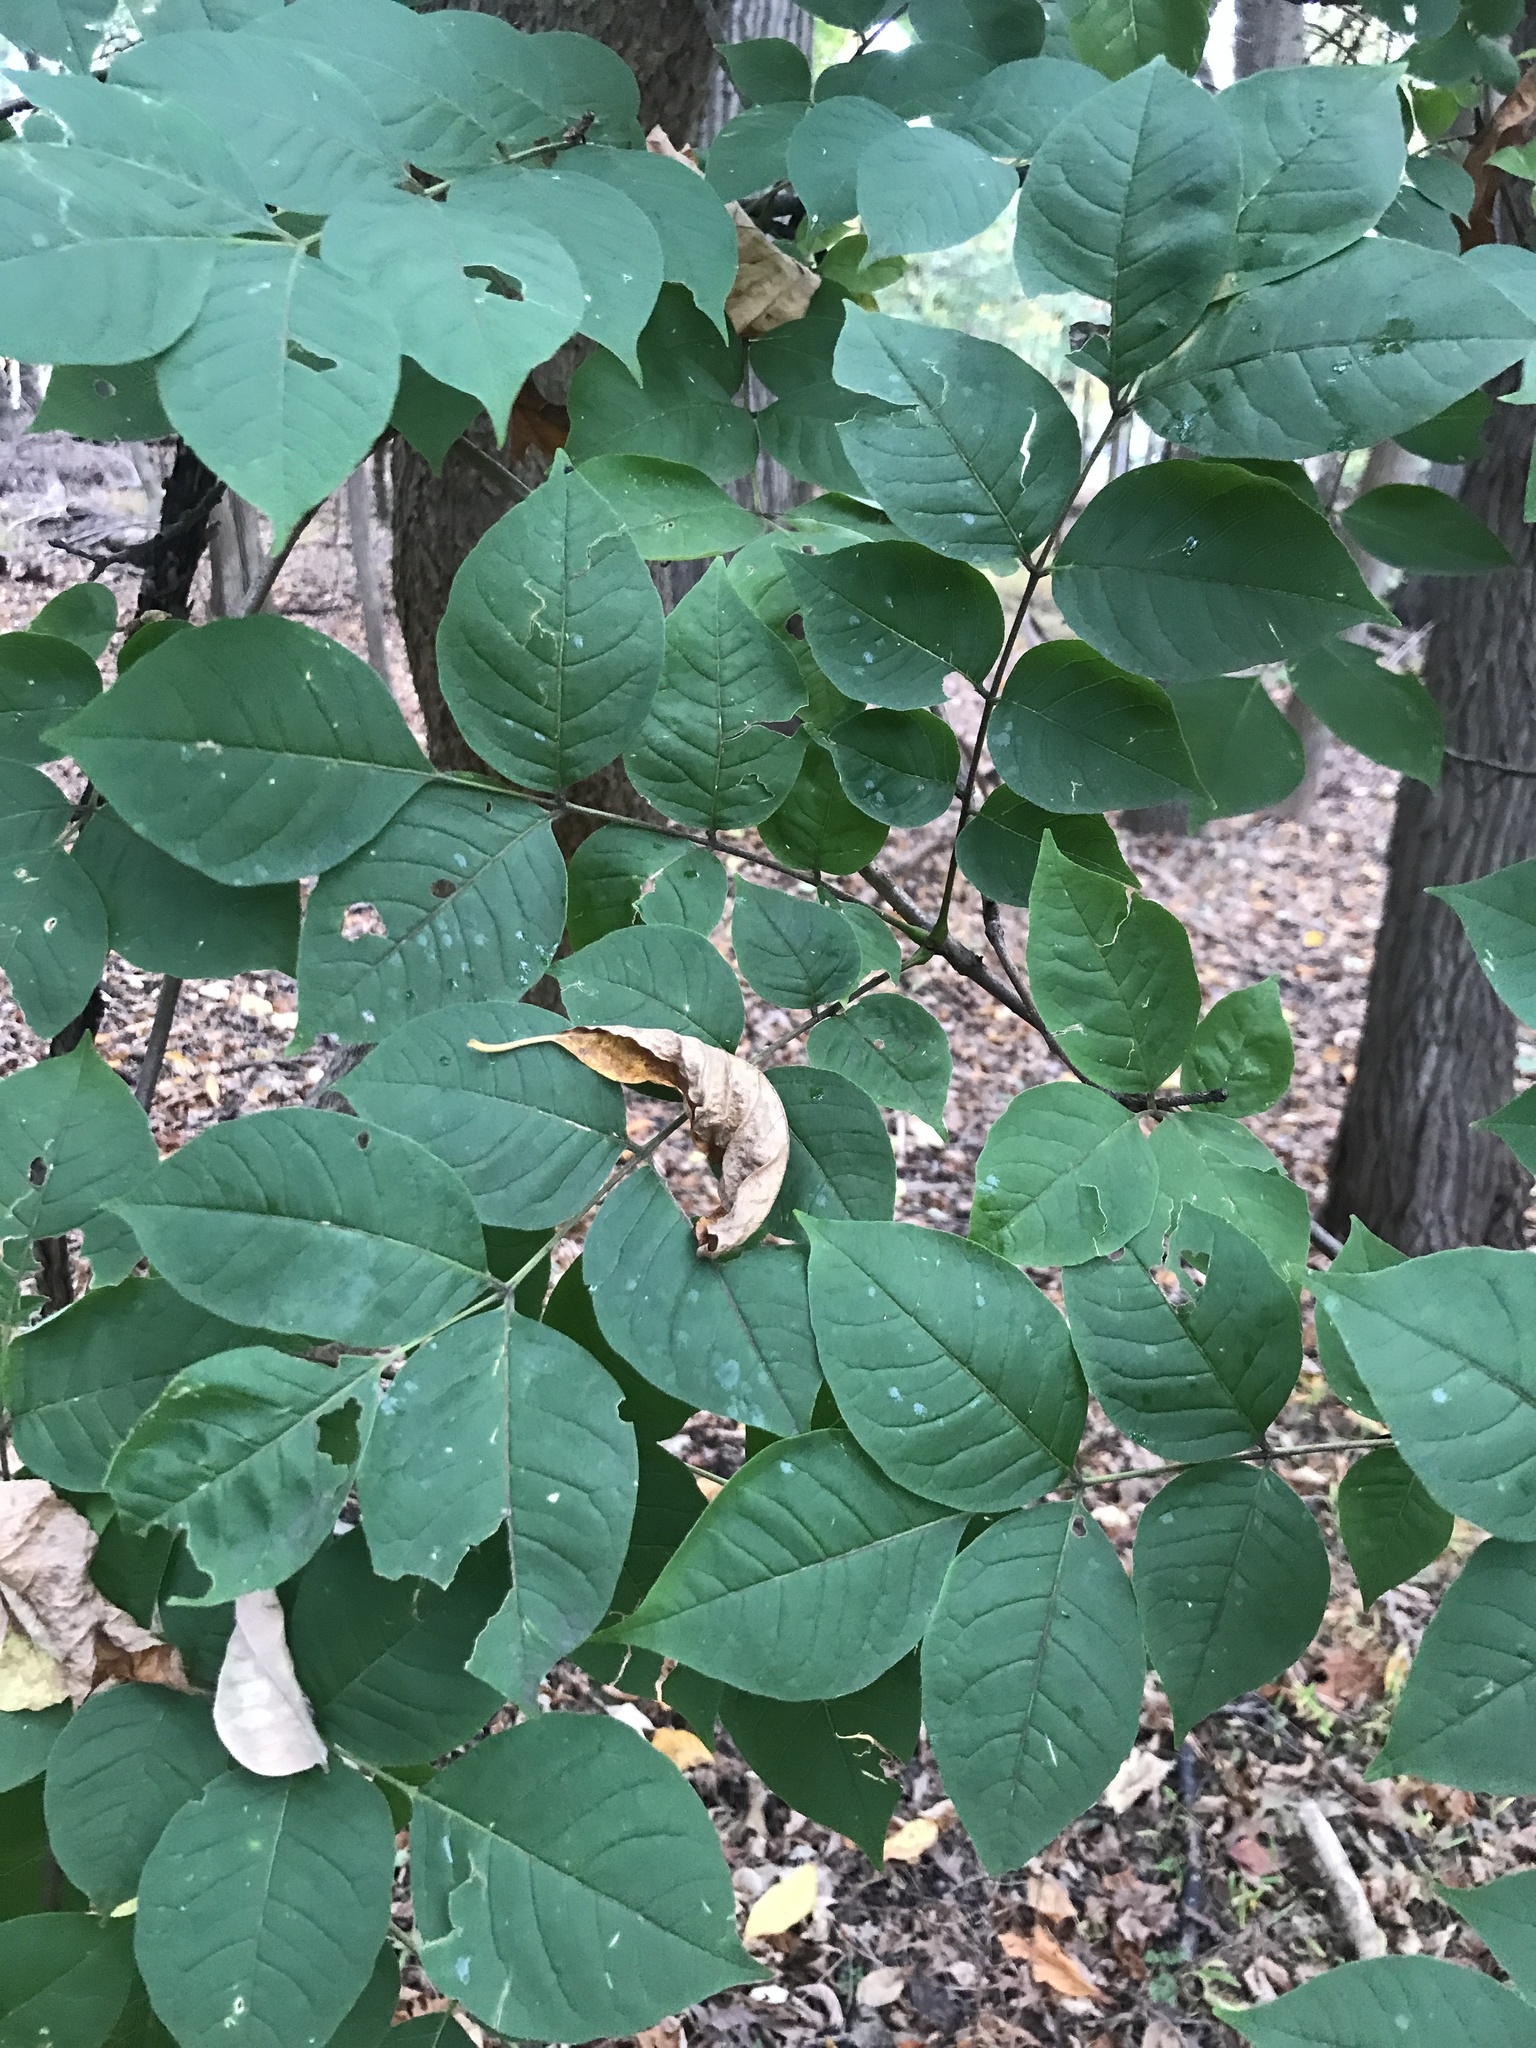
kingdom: Plantae
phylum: Tracheophyta
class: Magnoliopsida
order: Sapindales
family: Rutaceae
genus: Phellodendron
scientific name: Phellodendron amurense
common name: Amur corktree
